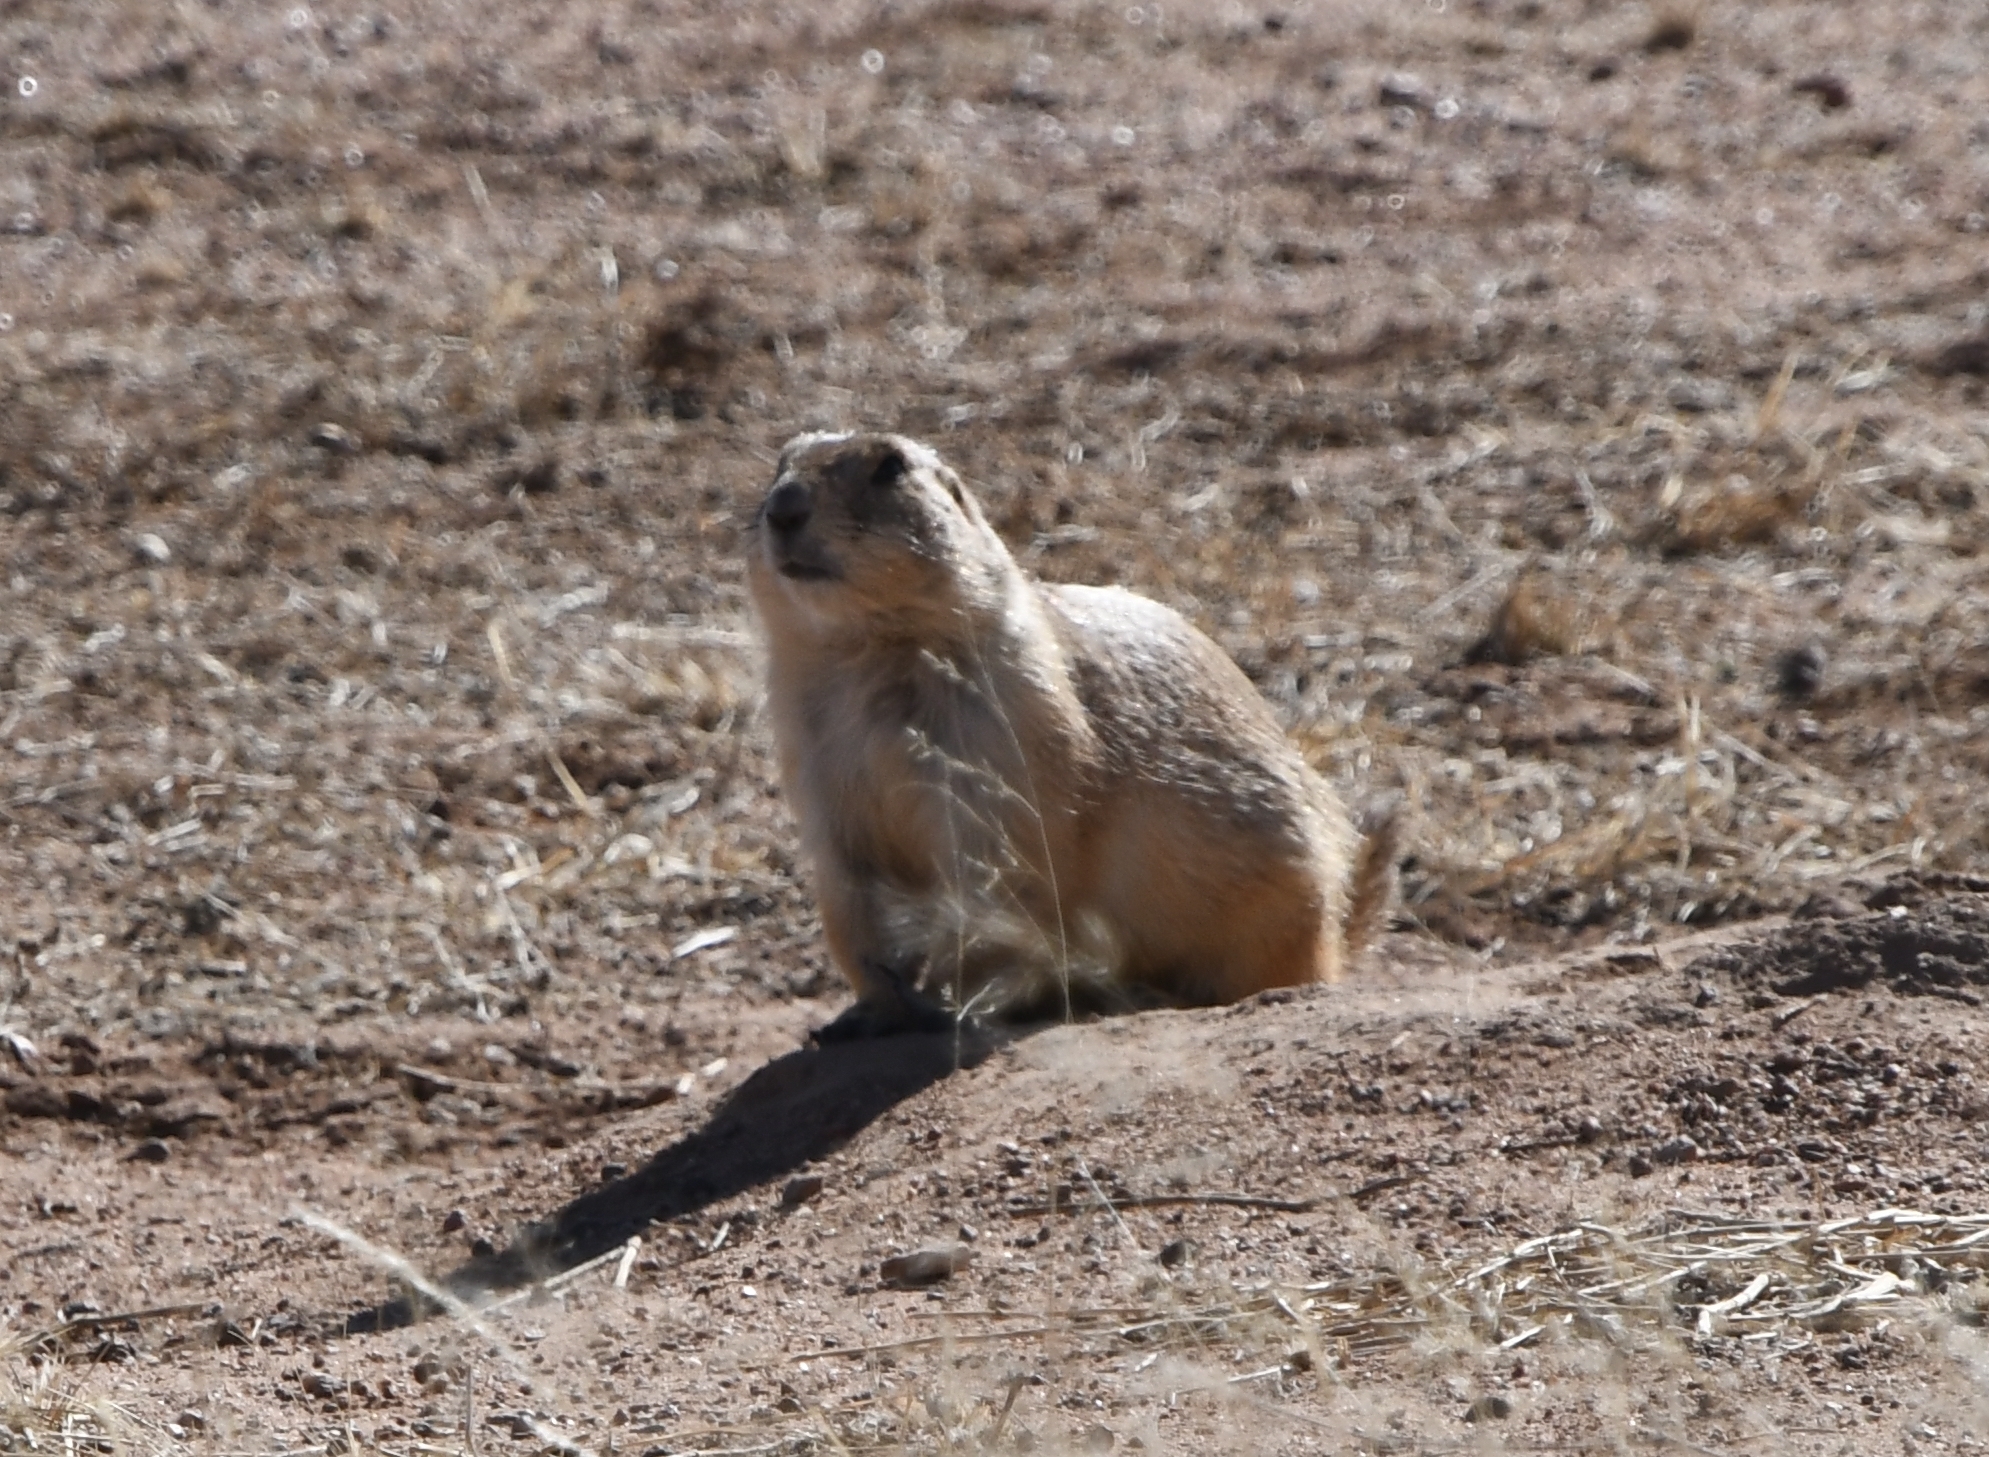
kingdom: Animalia
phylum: Chordata
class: Mammalia
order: Rodentia
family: Sciuridae
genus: Cynomys
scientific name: Cynomys ludovicianus
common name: Black-tailed prairie dog
